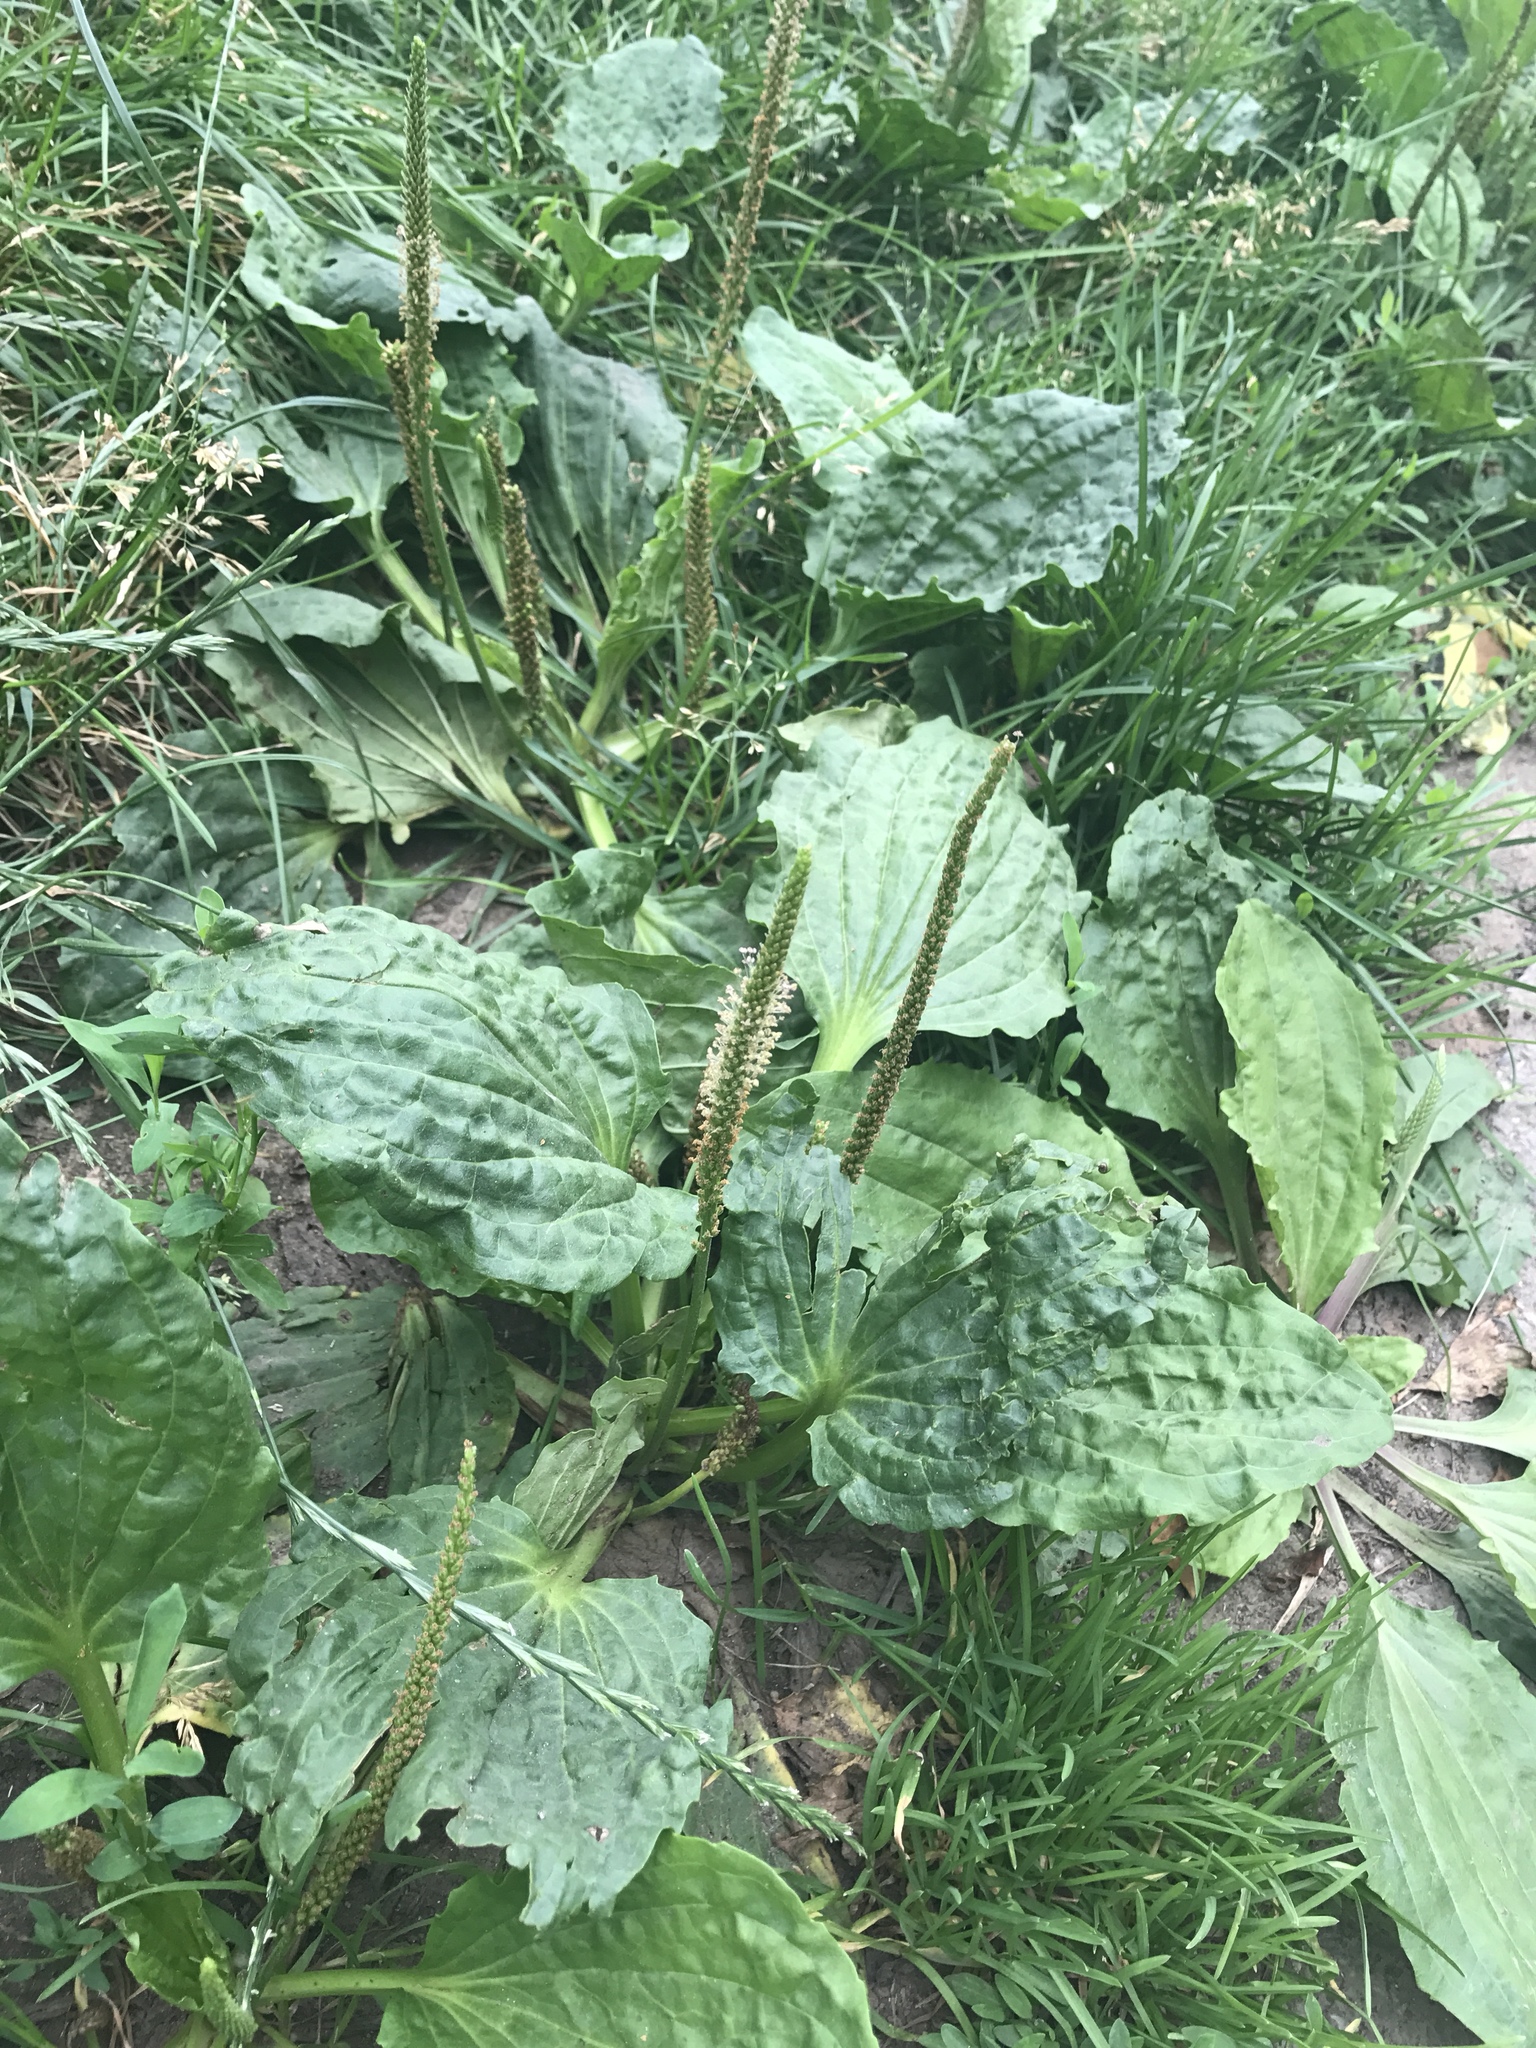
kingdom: Plantae
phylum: Tracheophyta
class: Magnoliopsida
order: Lamiales
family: Plantaginaceae
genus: Plantago
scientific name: Plantago major
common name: Common plantain
